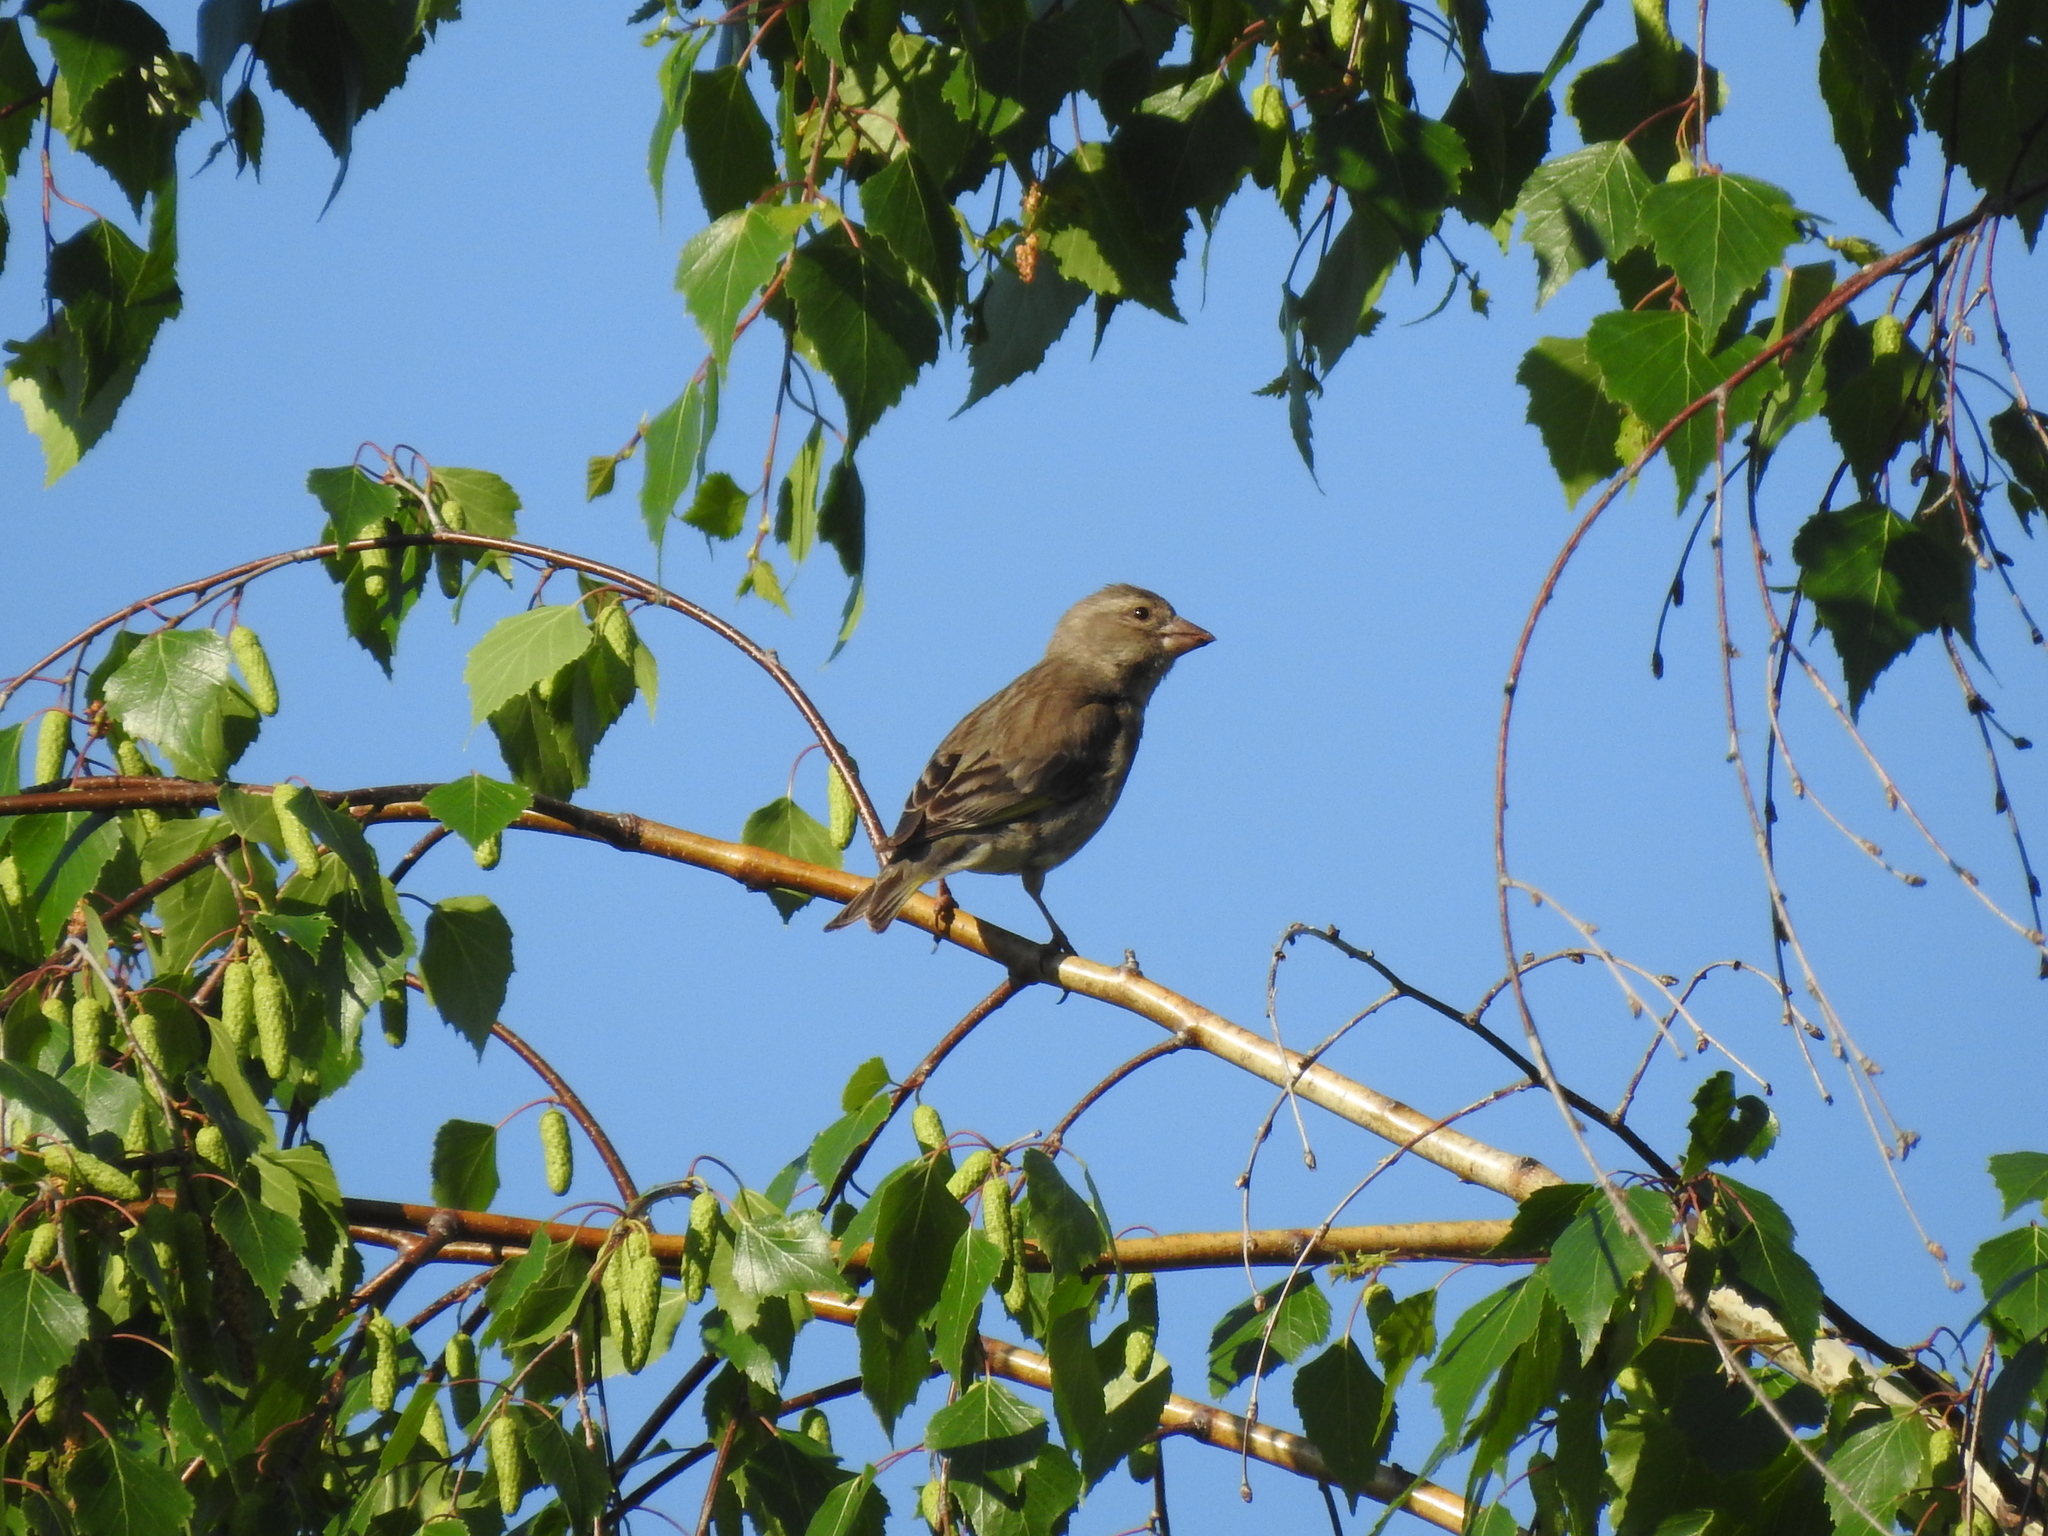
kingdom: Plantae
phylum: Tracheophyta
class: Liliopsida
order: Poales
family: Poaceae
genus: Chloris
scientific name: Chloris chloris
